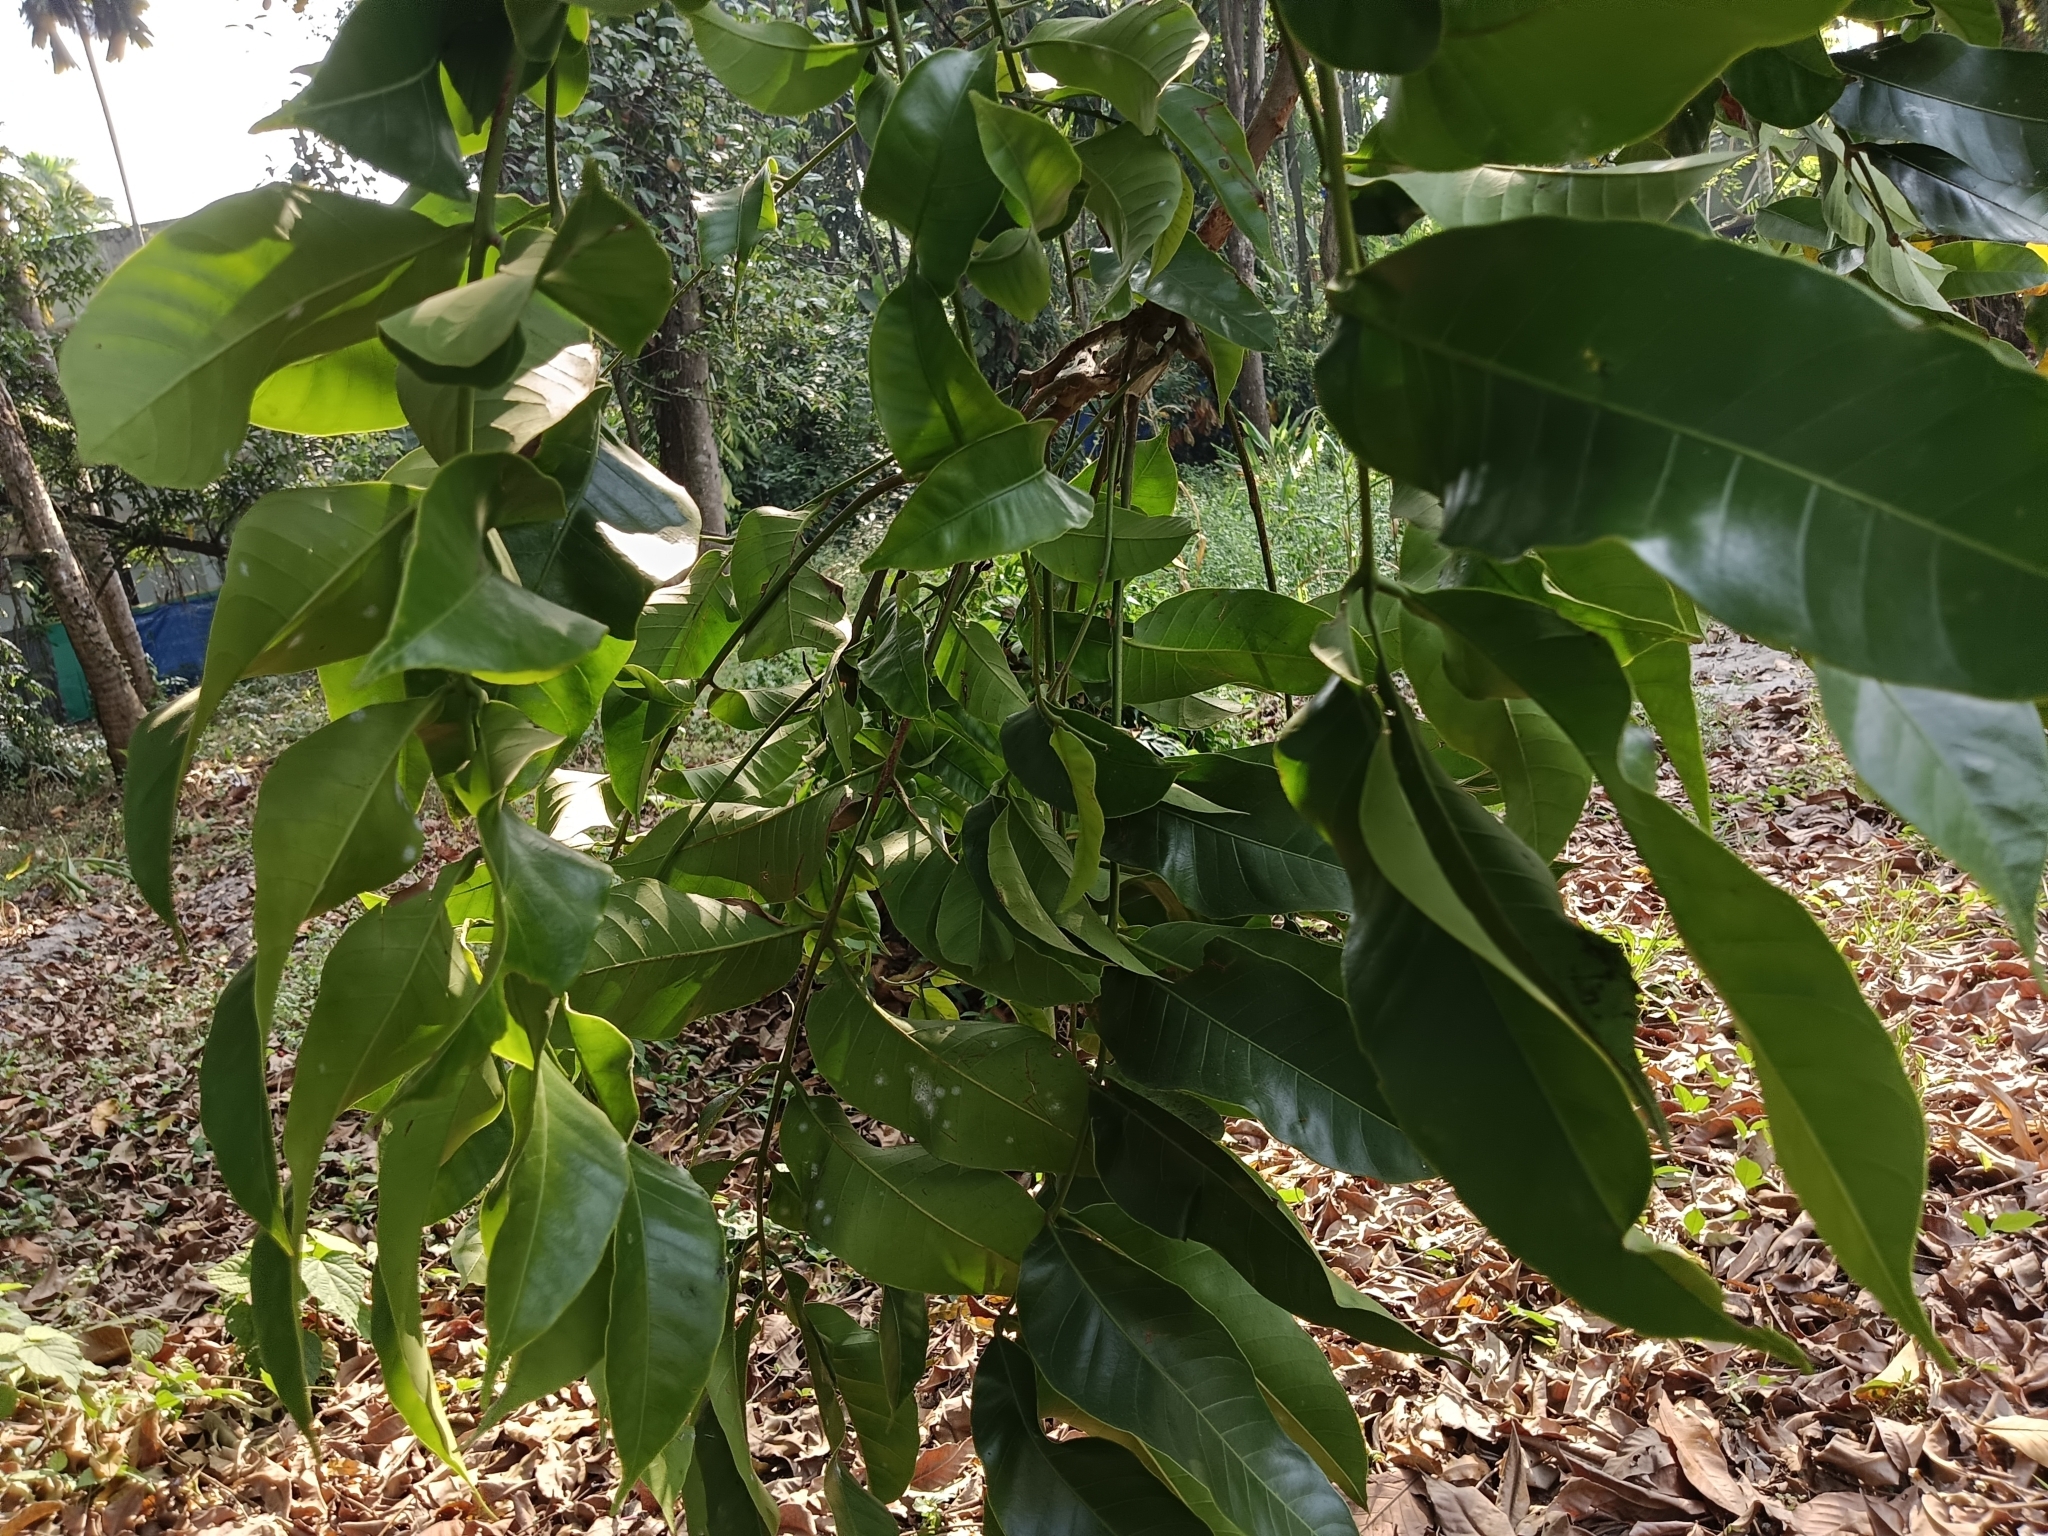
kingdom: Plantae
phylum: Tracheophyta
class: Magnoliopsida
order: Sapindales
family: Meliaceae
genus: Aphanamixis
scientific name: Aphanamixis polystachya
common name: Pithraj tree
